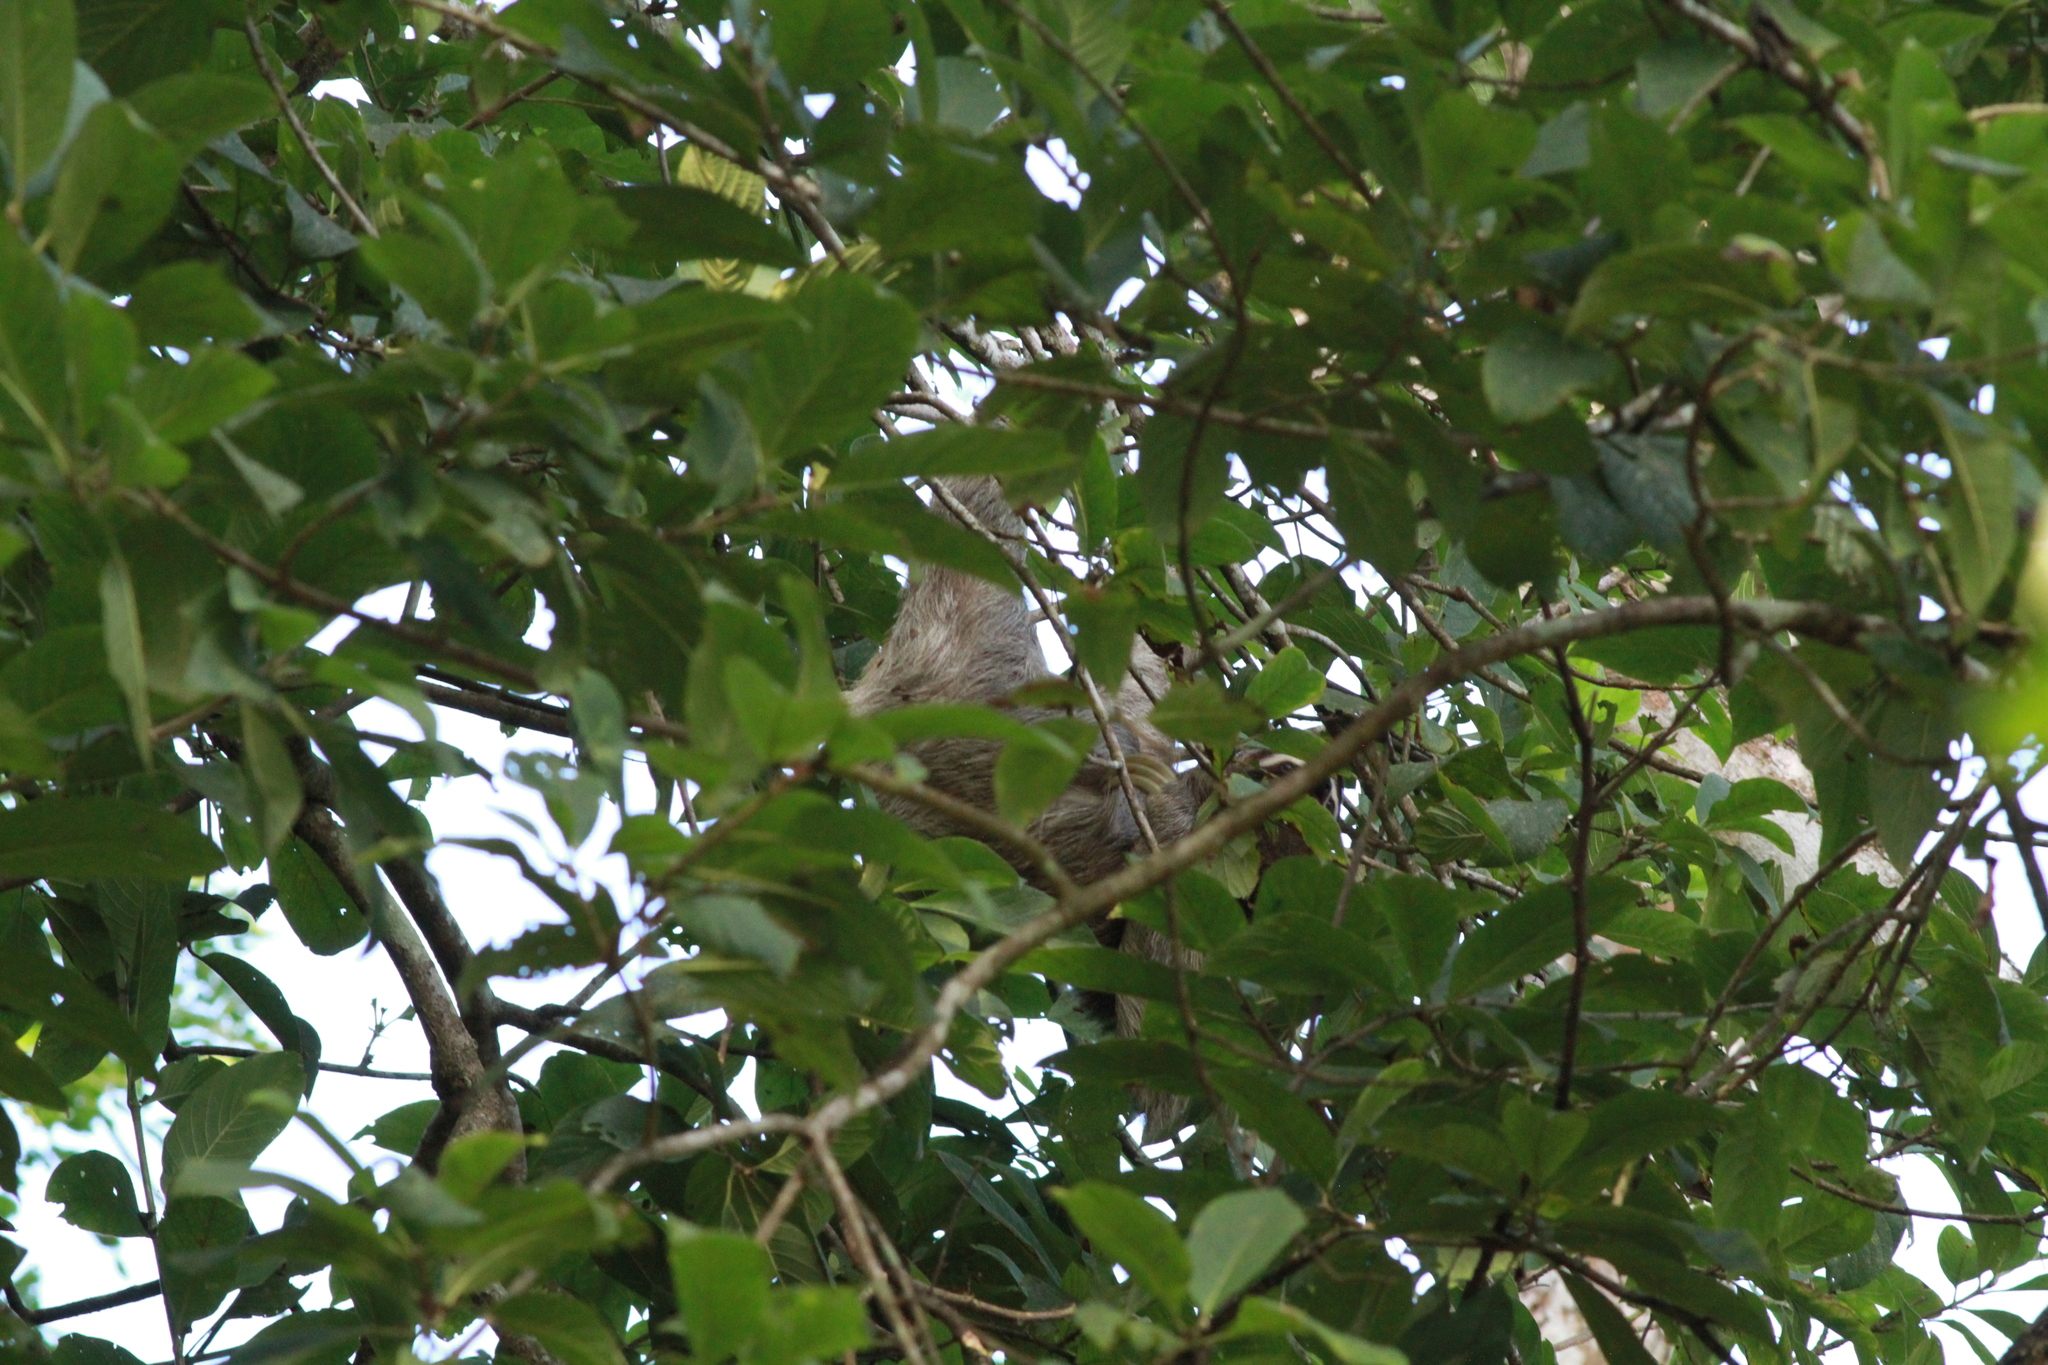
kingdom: Animalia
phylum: Chordata
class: Mammalia
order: Pilosa
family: Bradypodidae
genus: Bradypus
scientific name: Bradypus variegatus
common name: Brown-throated three-toed sloth
